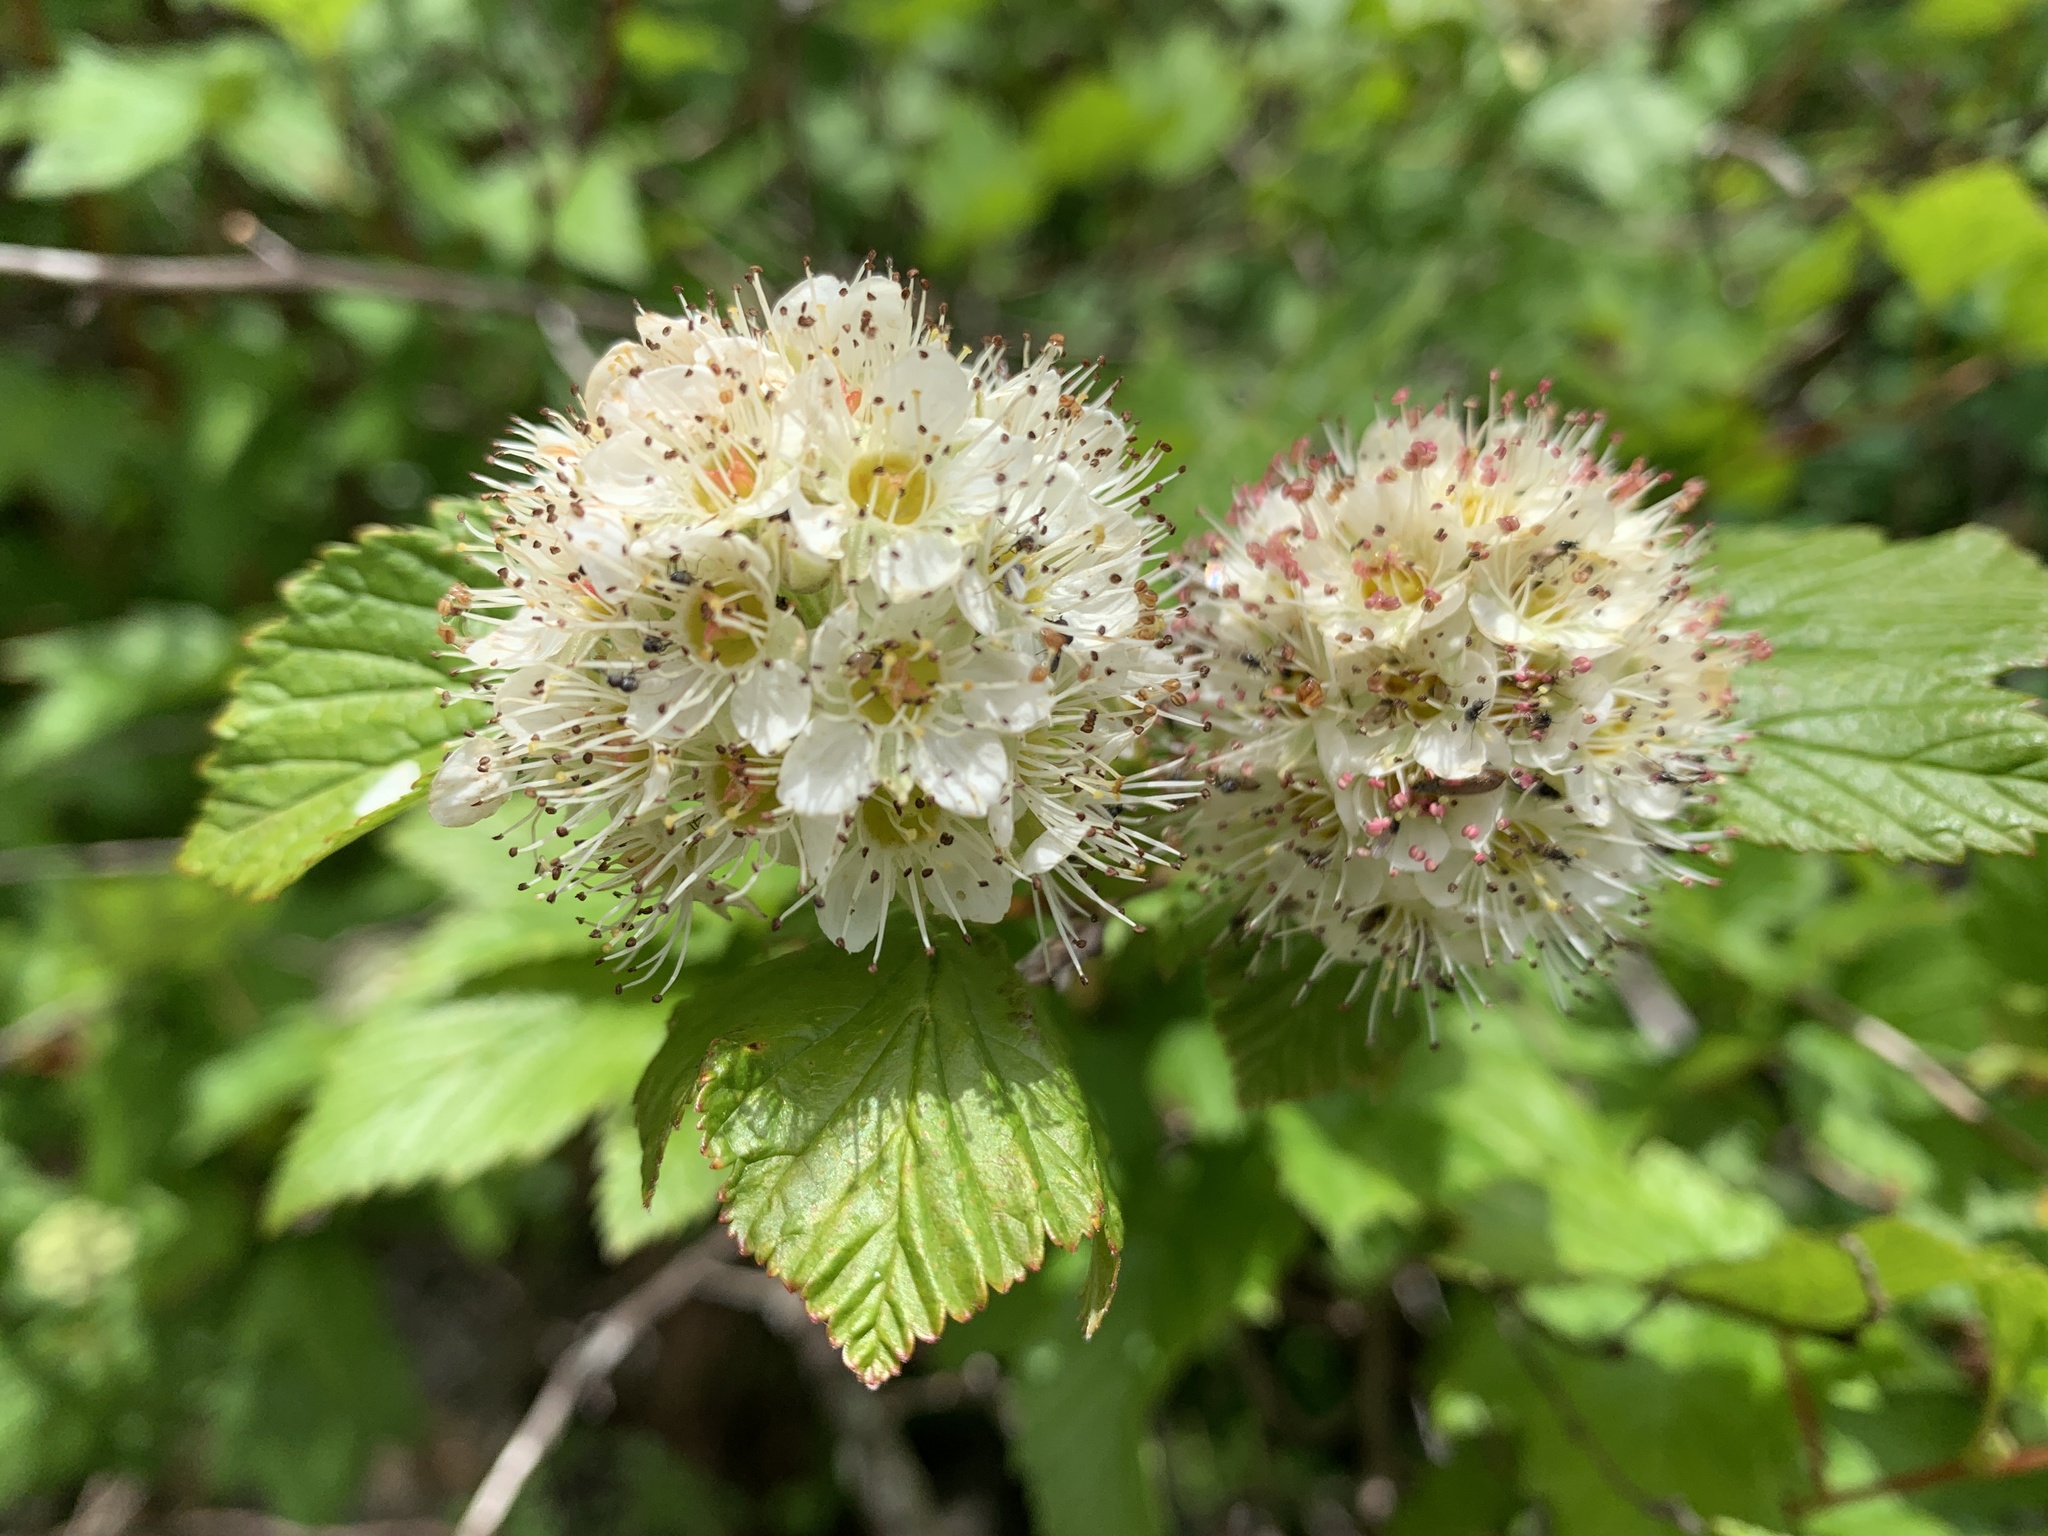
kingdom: Plantae
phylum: Tracheophyta
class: Magnoliopsida
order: Rosales
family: Rosaceae
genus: Physocarpus
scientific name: Physocarpus capitatus
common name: Pacific ninebark
